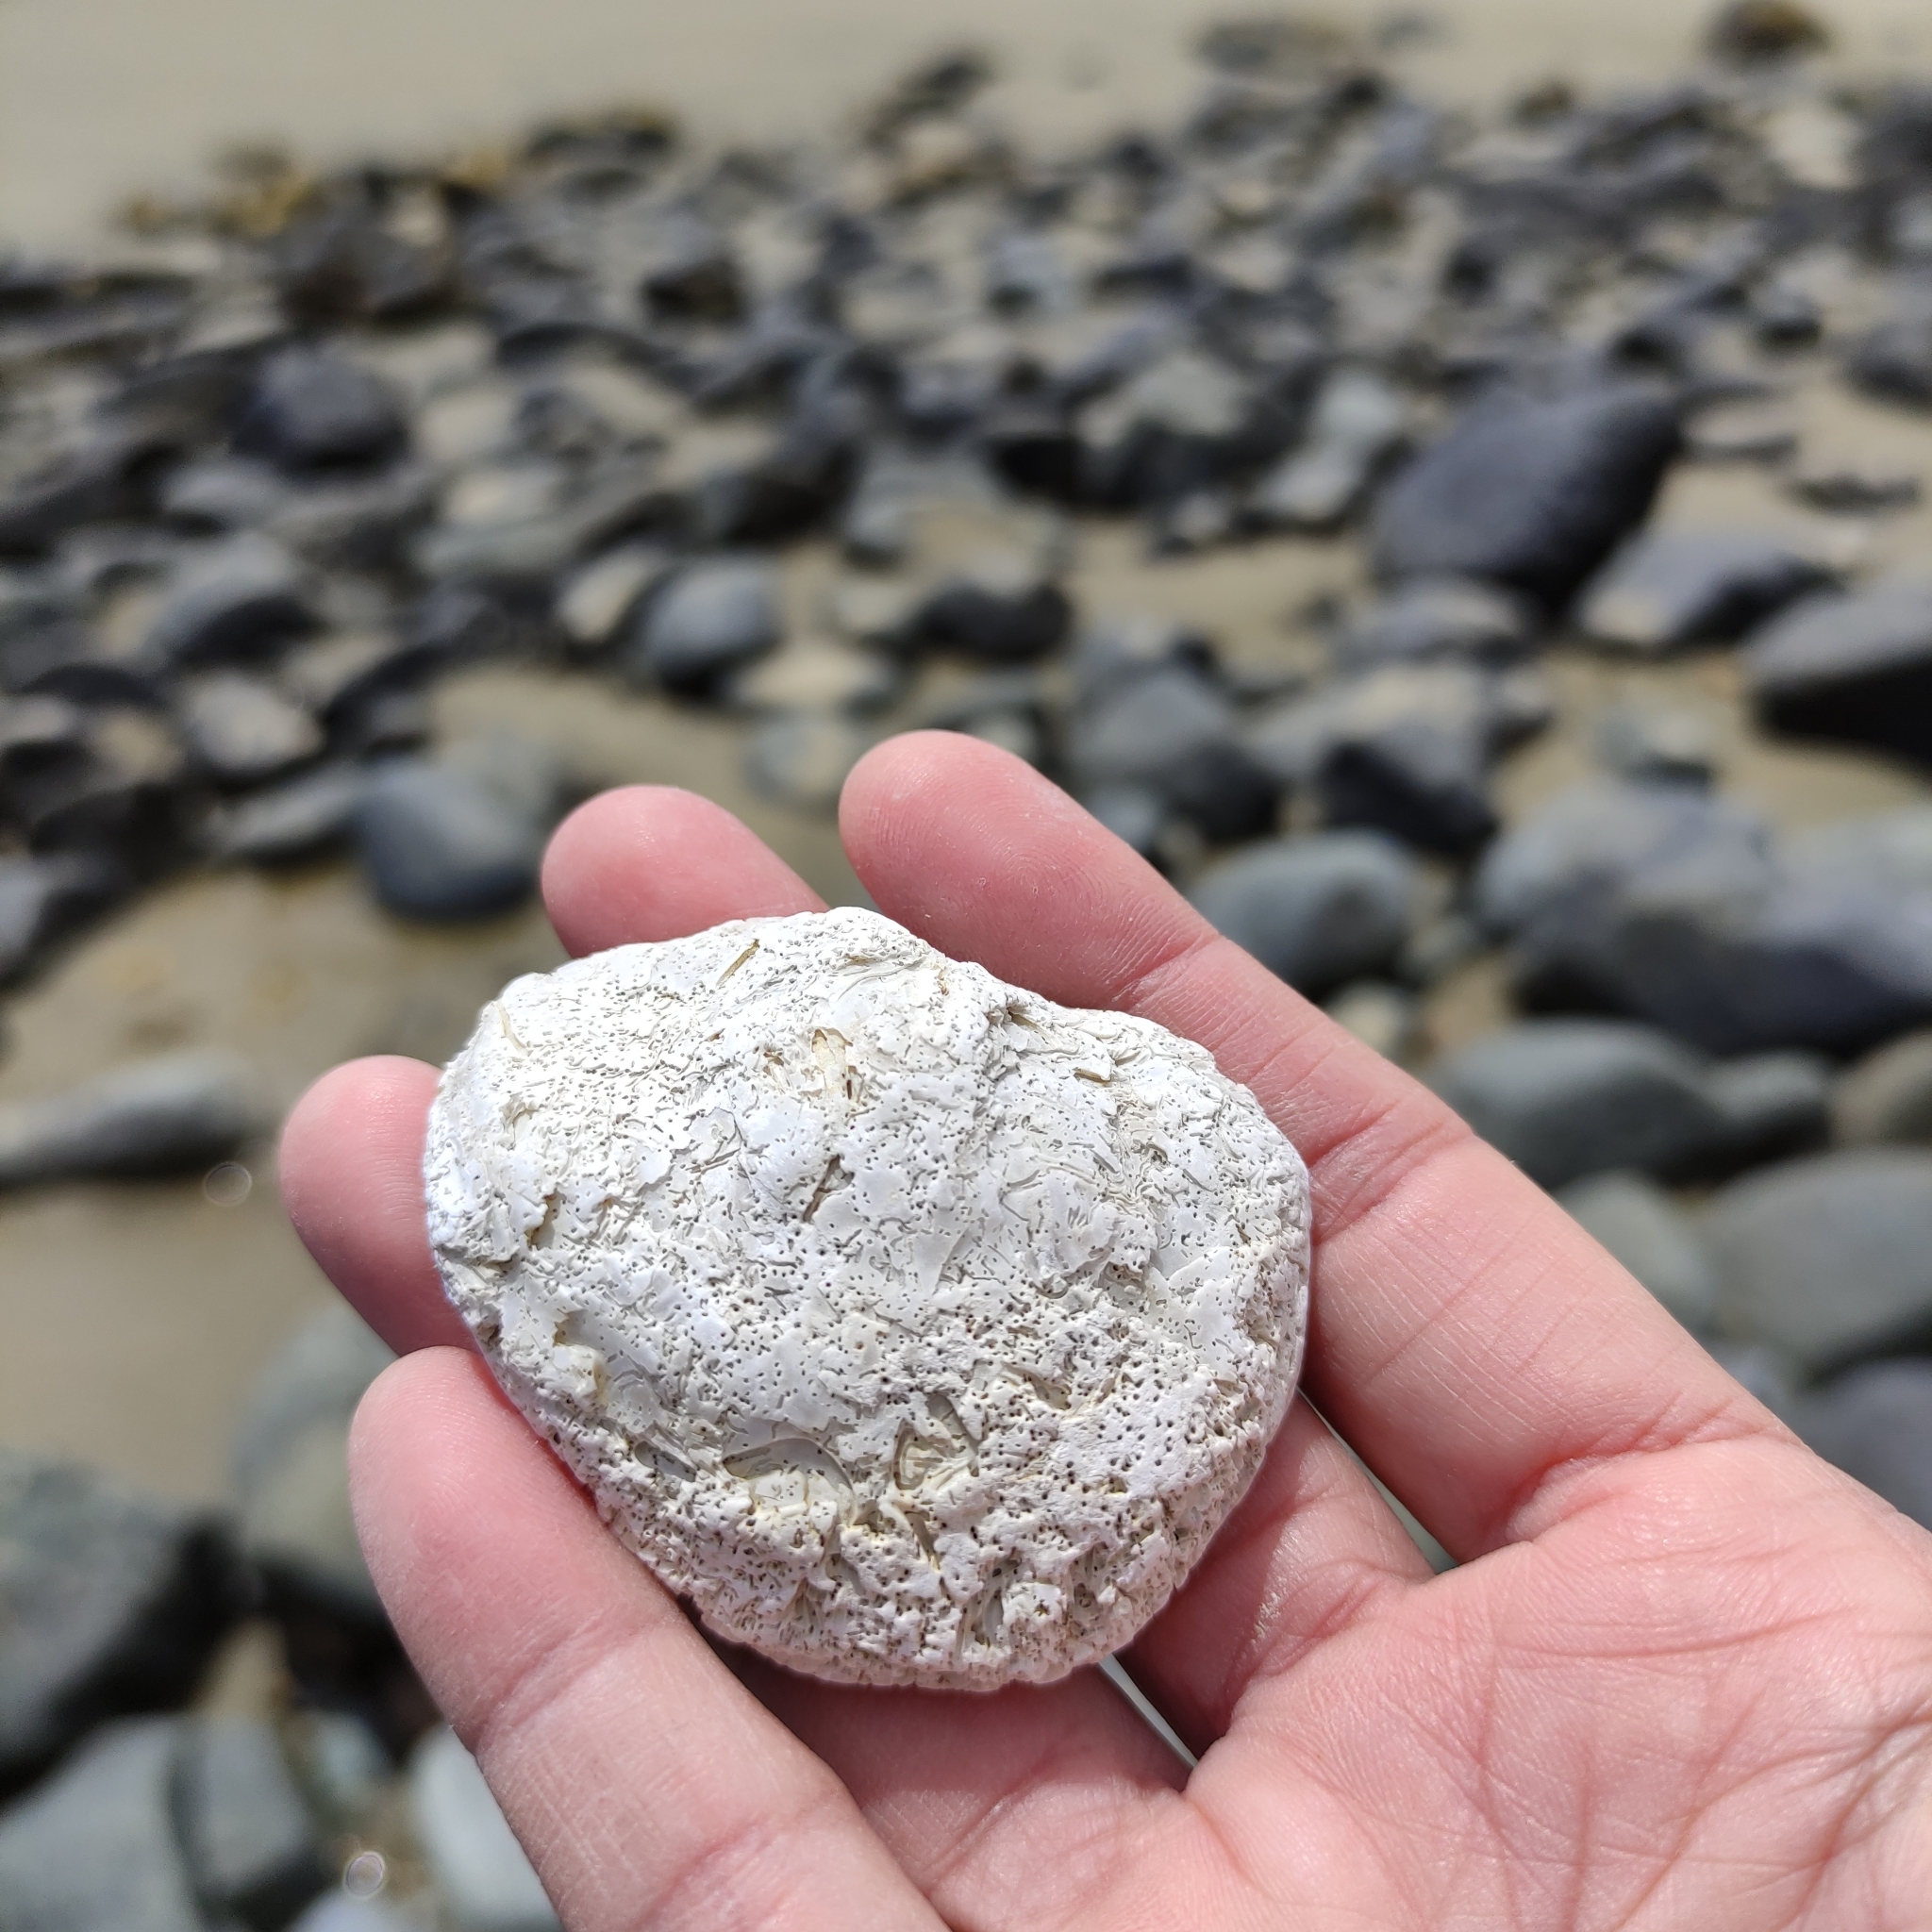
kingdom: Animalia
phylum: Mollusca
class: Bivalvia
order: Ostreida
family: Ostreidae
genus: Ostrea
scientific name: Ostrea chilensis
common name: Chilean oyster
